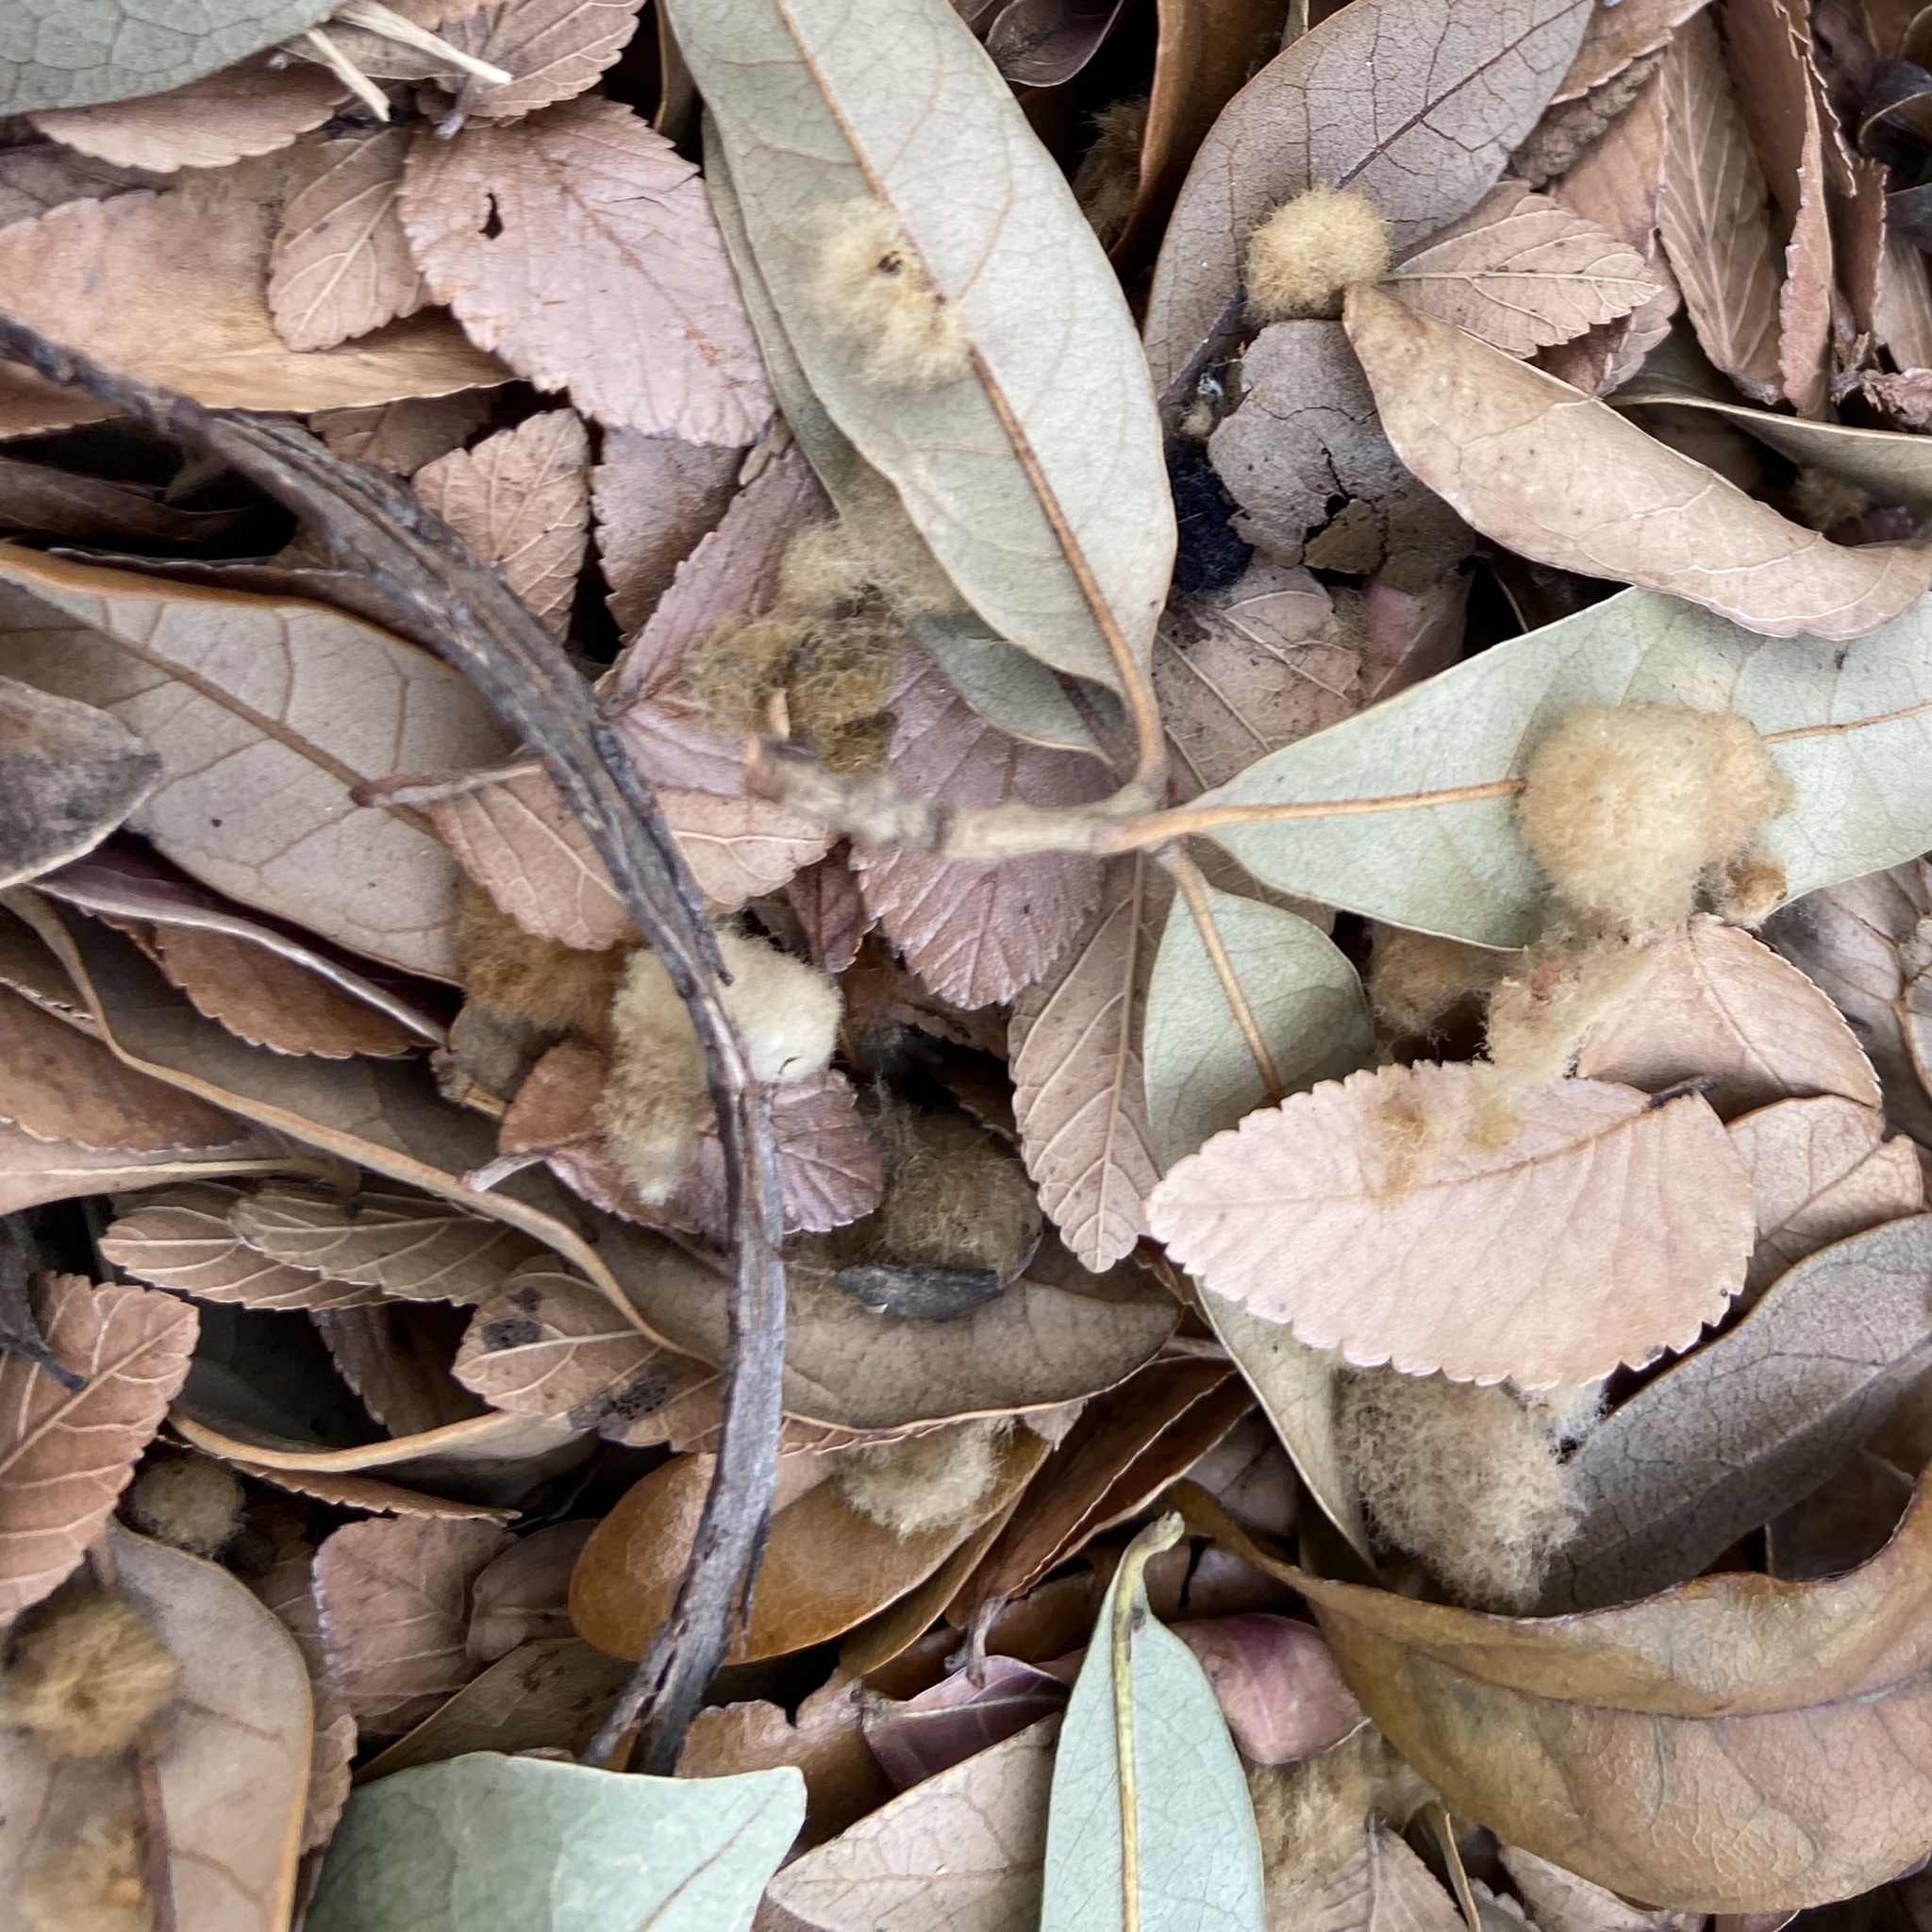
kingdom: Animalia
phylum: Arthropoda
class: Insecta
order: Hymenoptera
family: Cynipidae
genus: Andricus
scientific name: Andricus Druon quercuslanigerum
